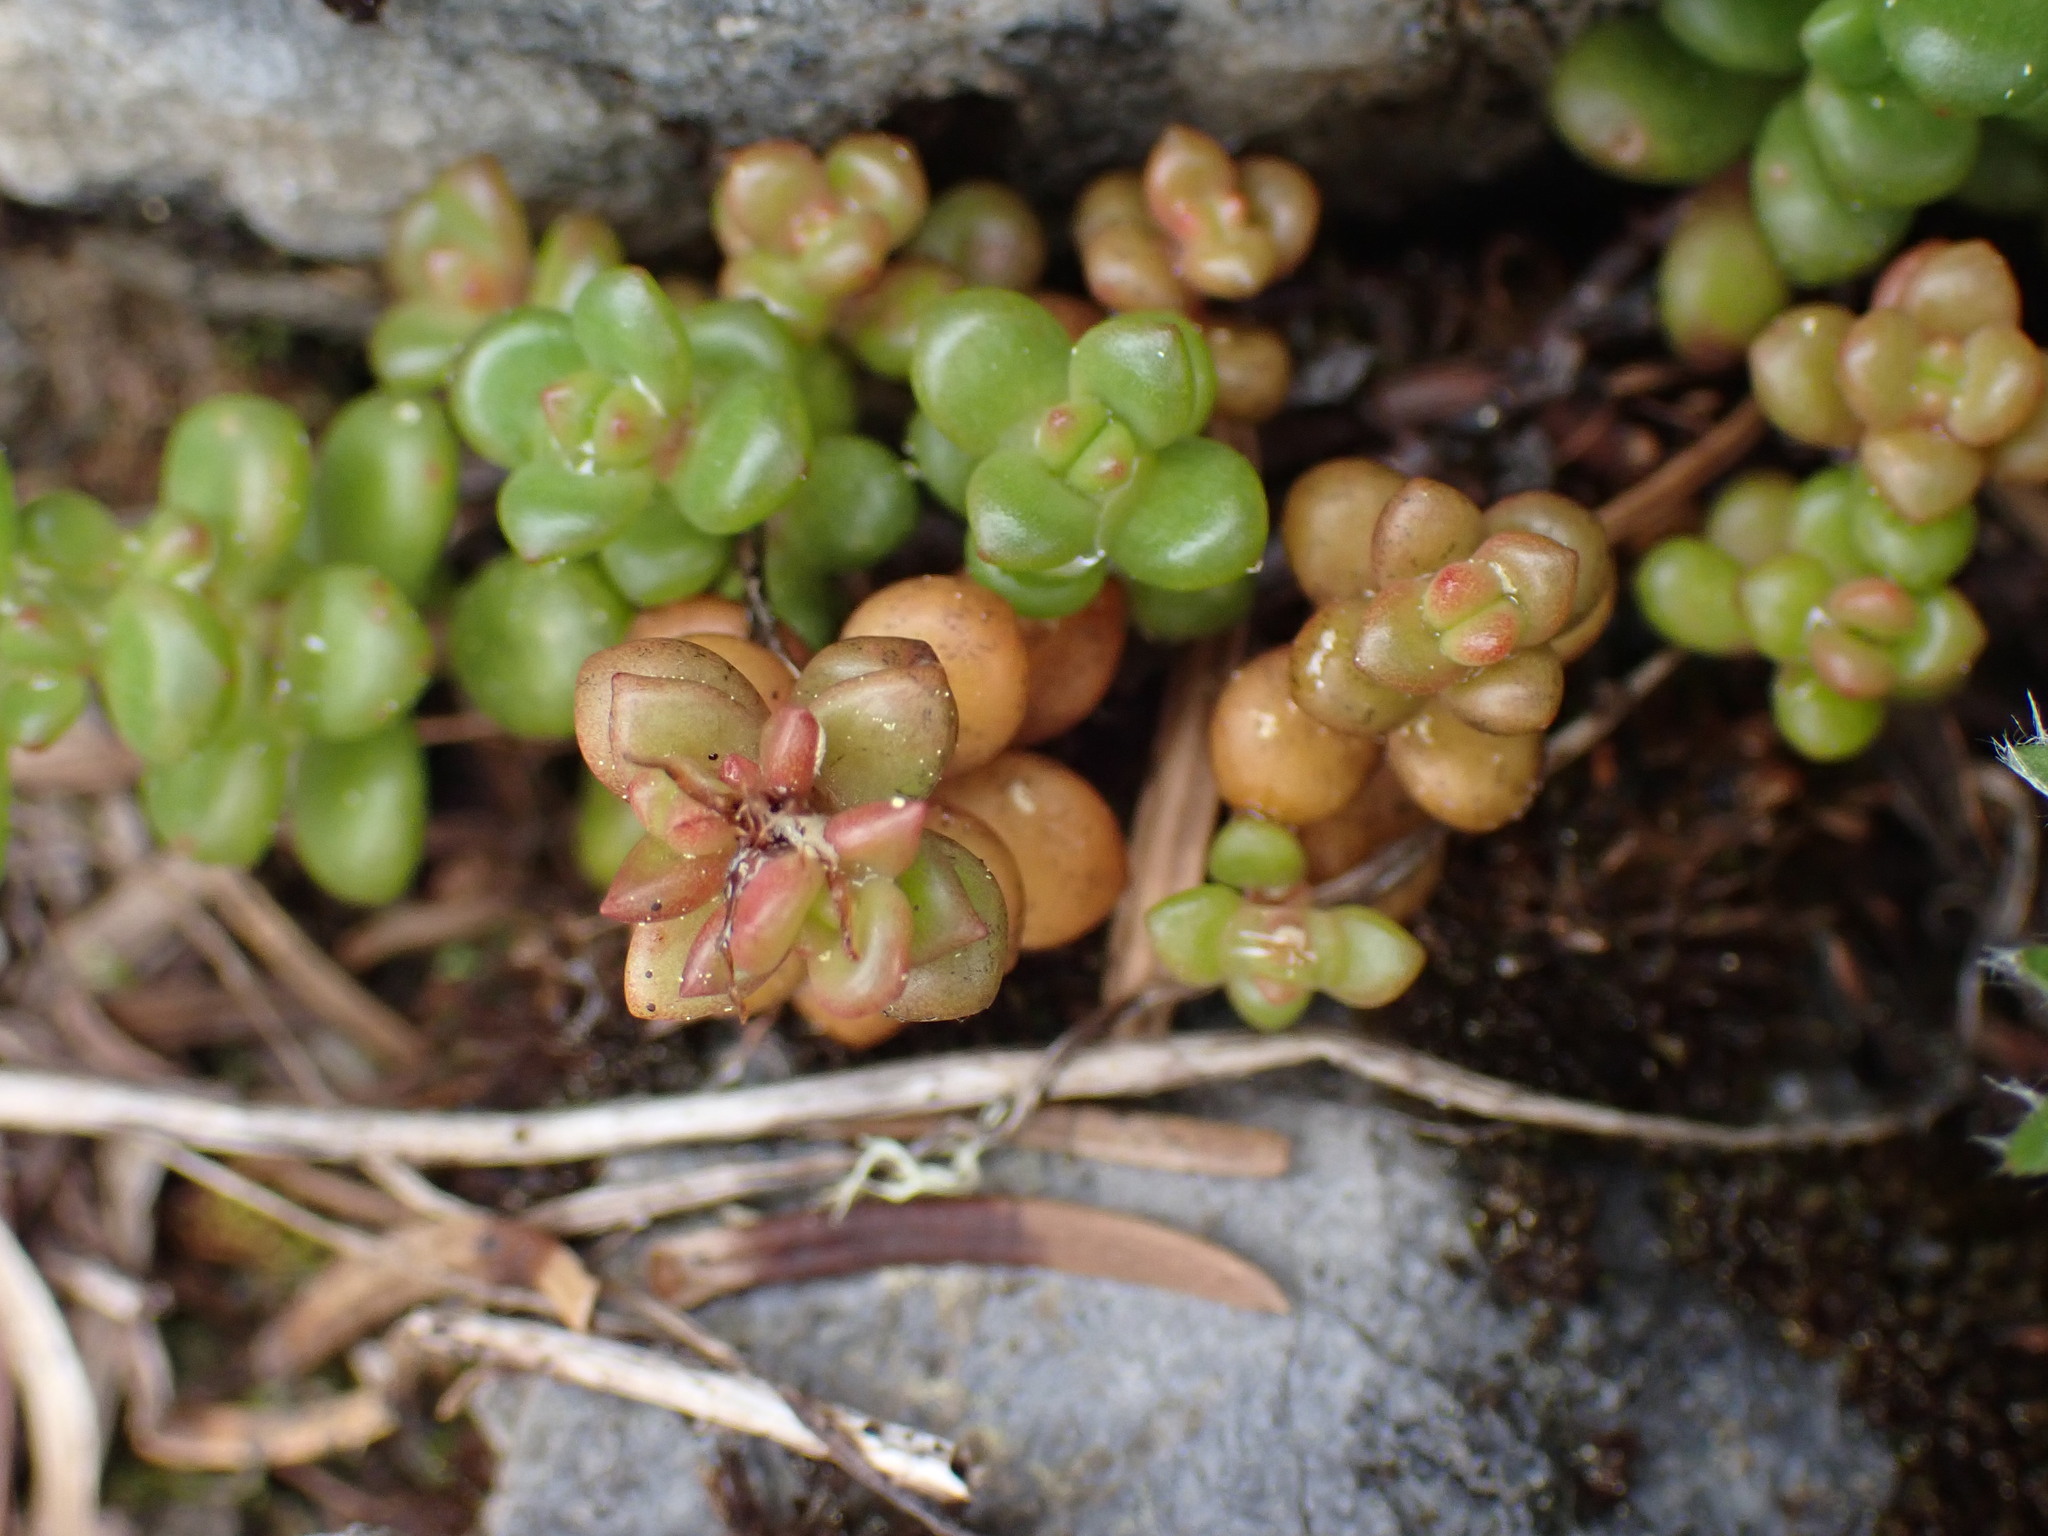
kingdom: Plantae
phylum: Tracheophyta
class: Magnoliopsida
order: Saxifragales
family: Crassulaceae
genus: Sedum
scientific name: Sedum divergens
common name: Cascade stonecrop
